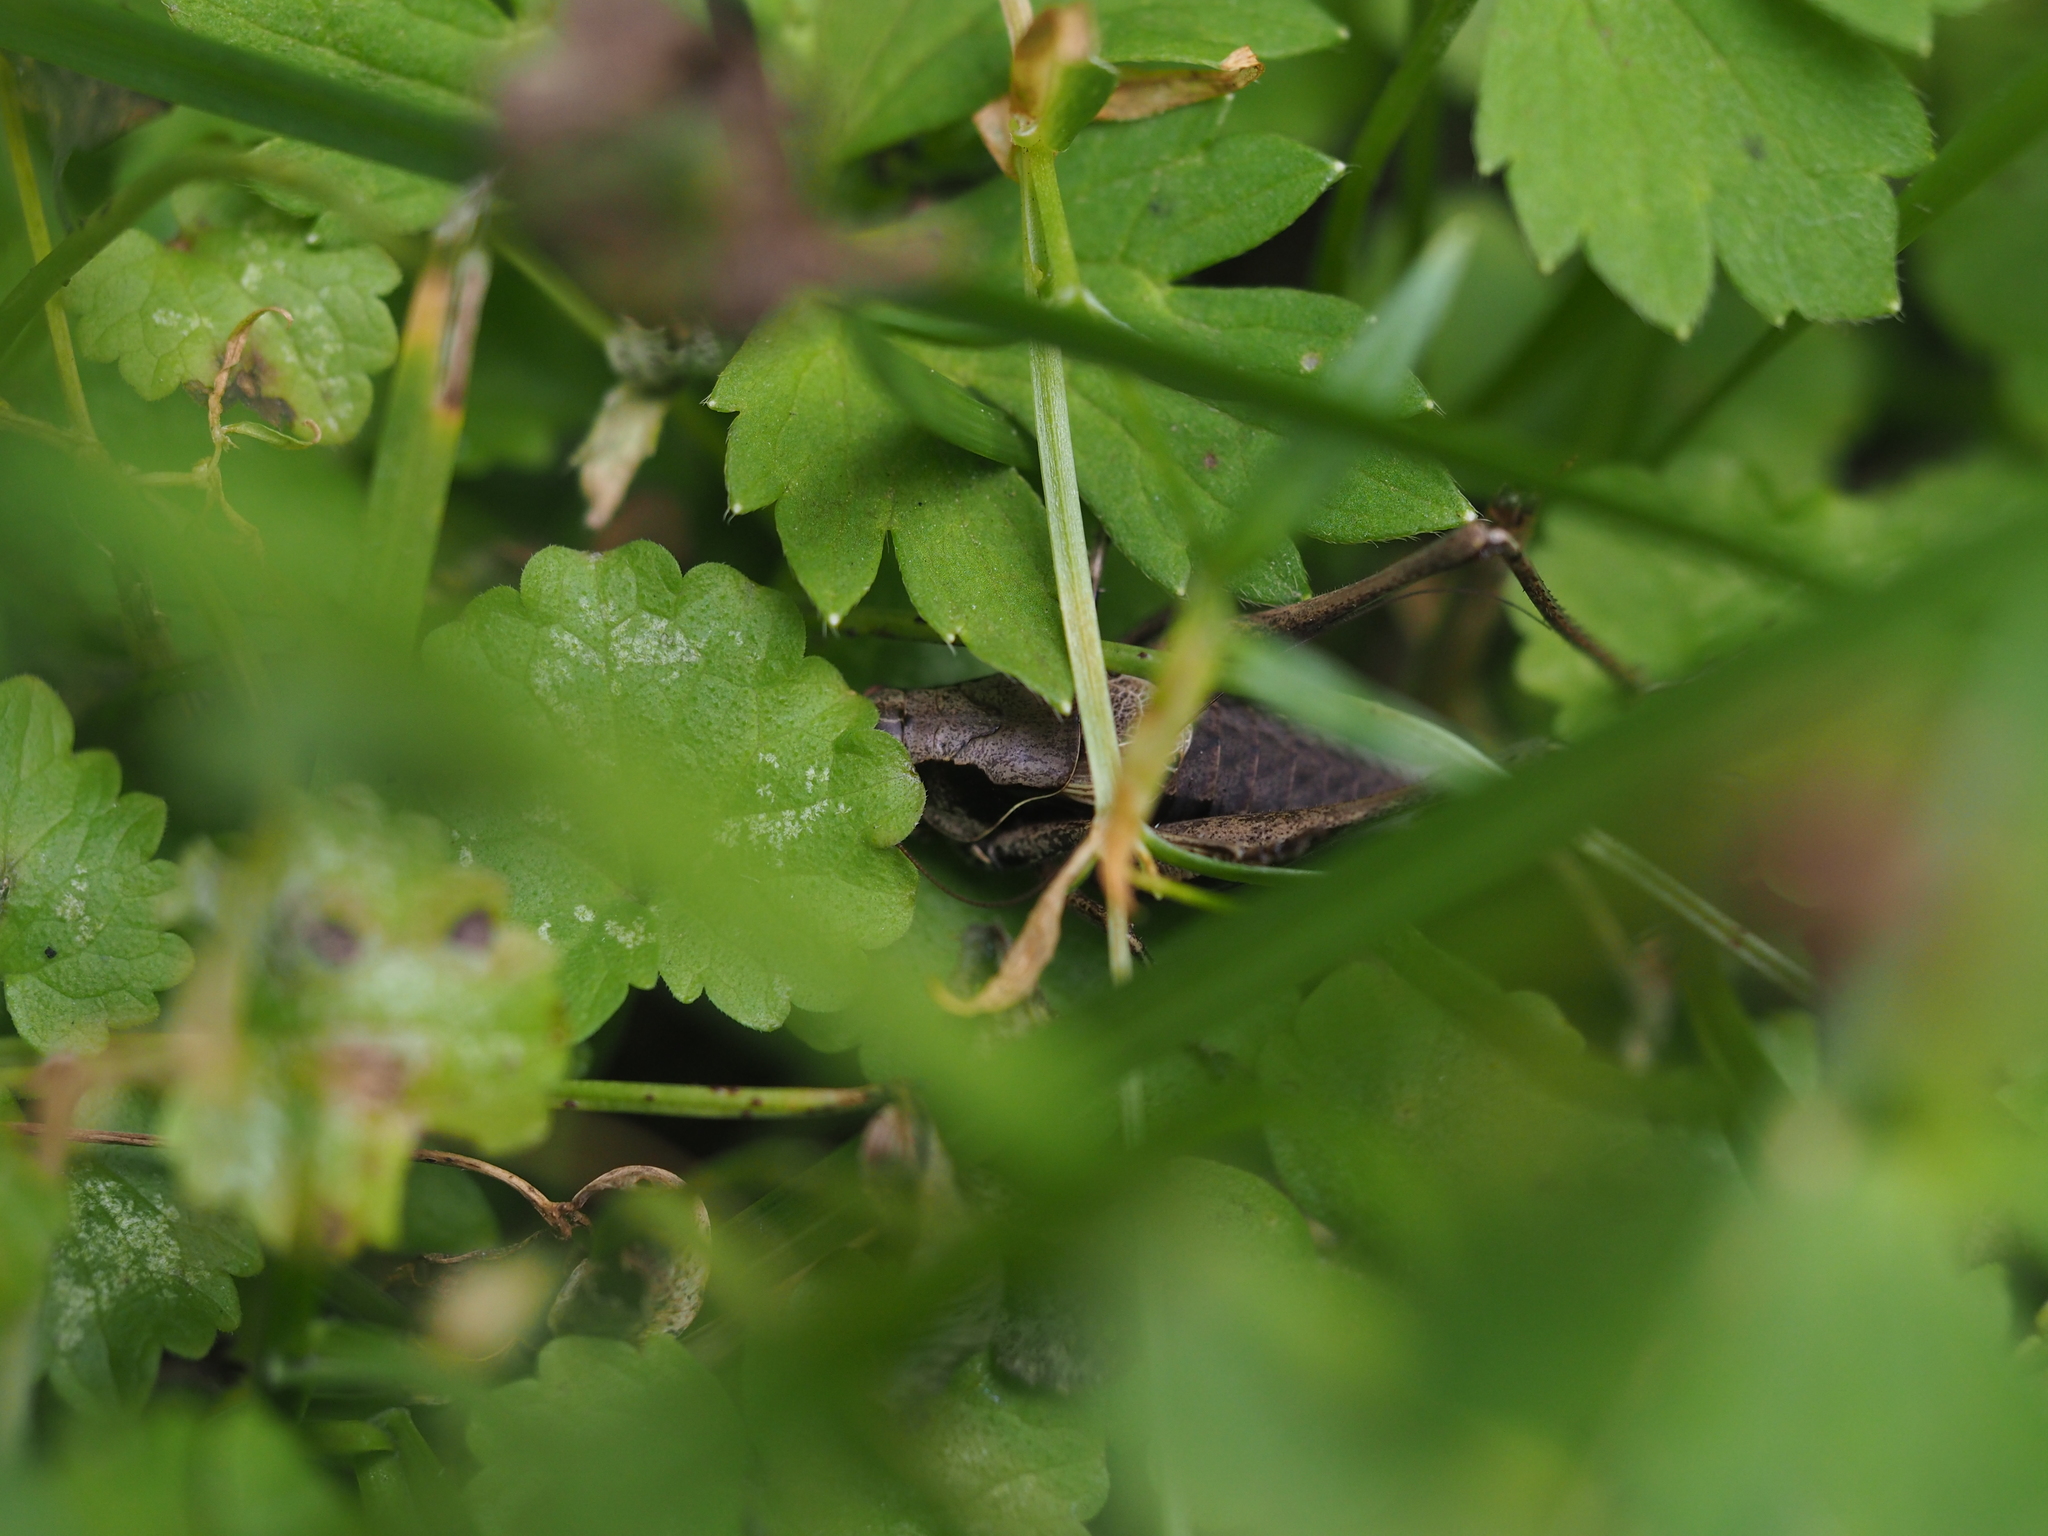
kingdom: Animalia
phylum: Arthropoda
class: Insecta
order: Orthoptera
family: Tettigoniidae
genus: Pholidoptera
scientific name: Pholidoptera griseoaptera
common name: Dark bush-cricket
